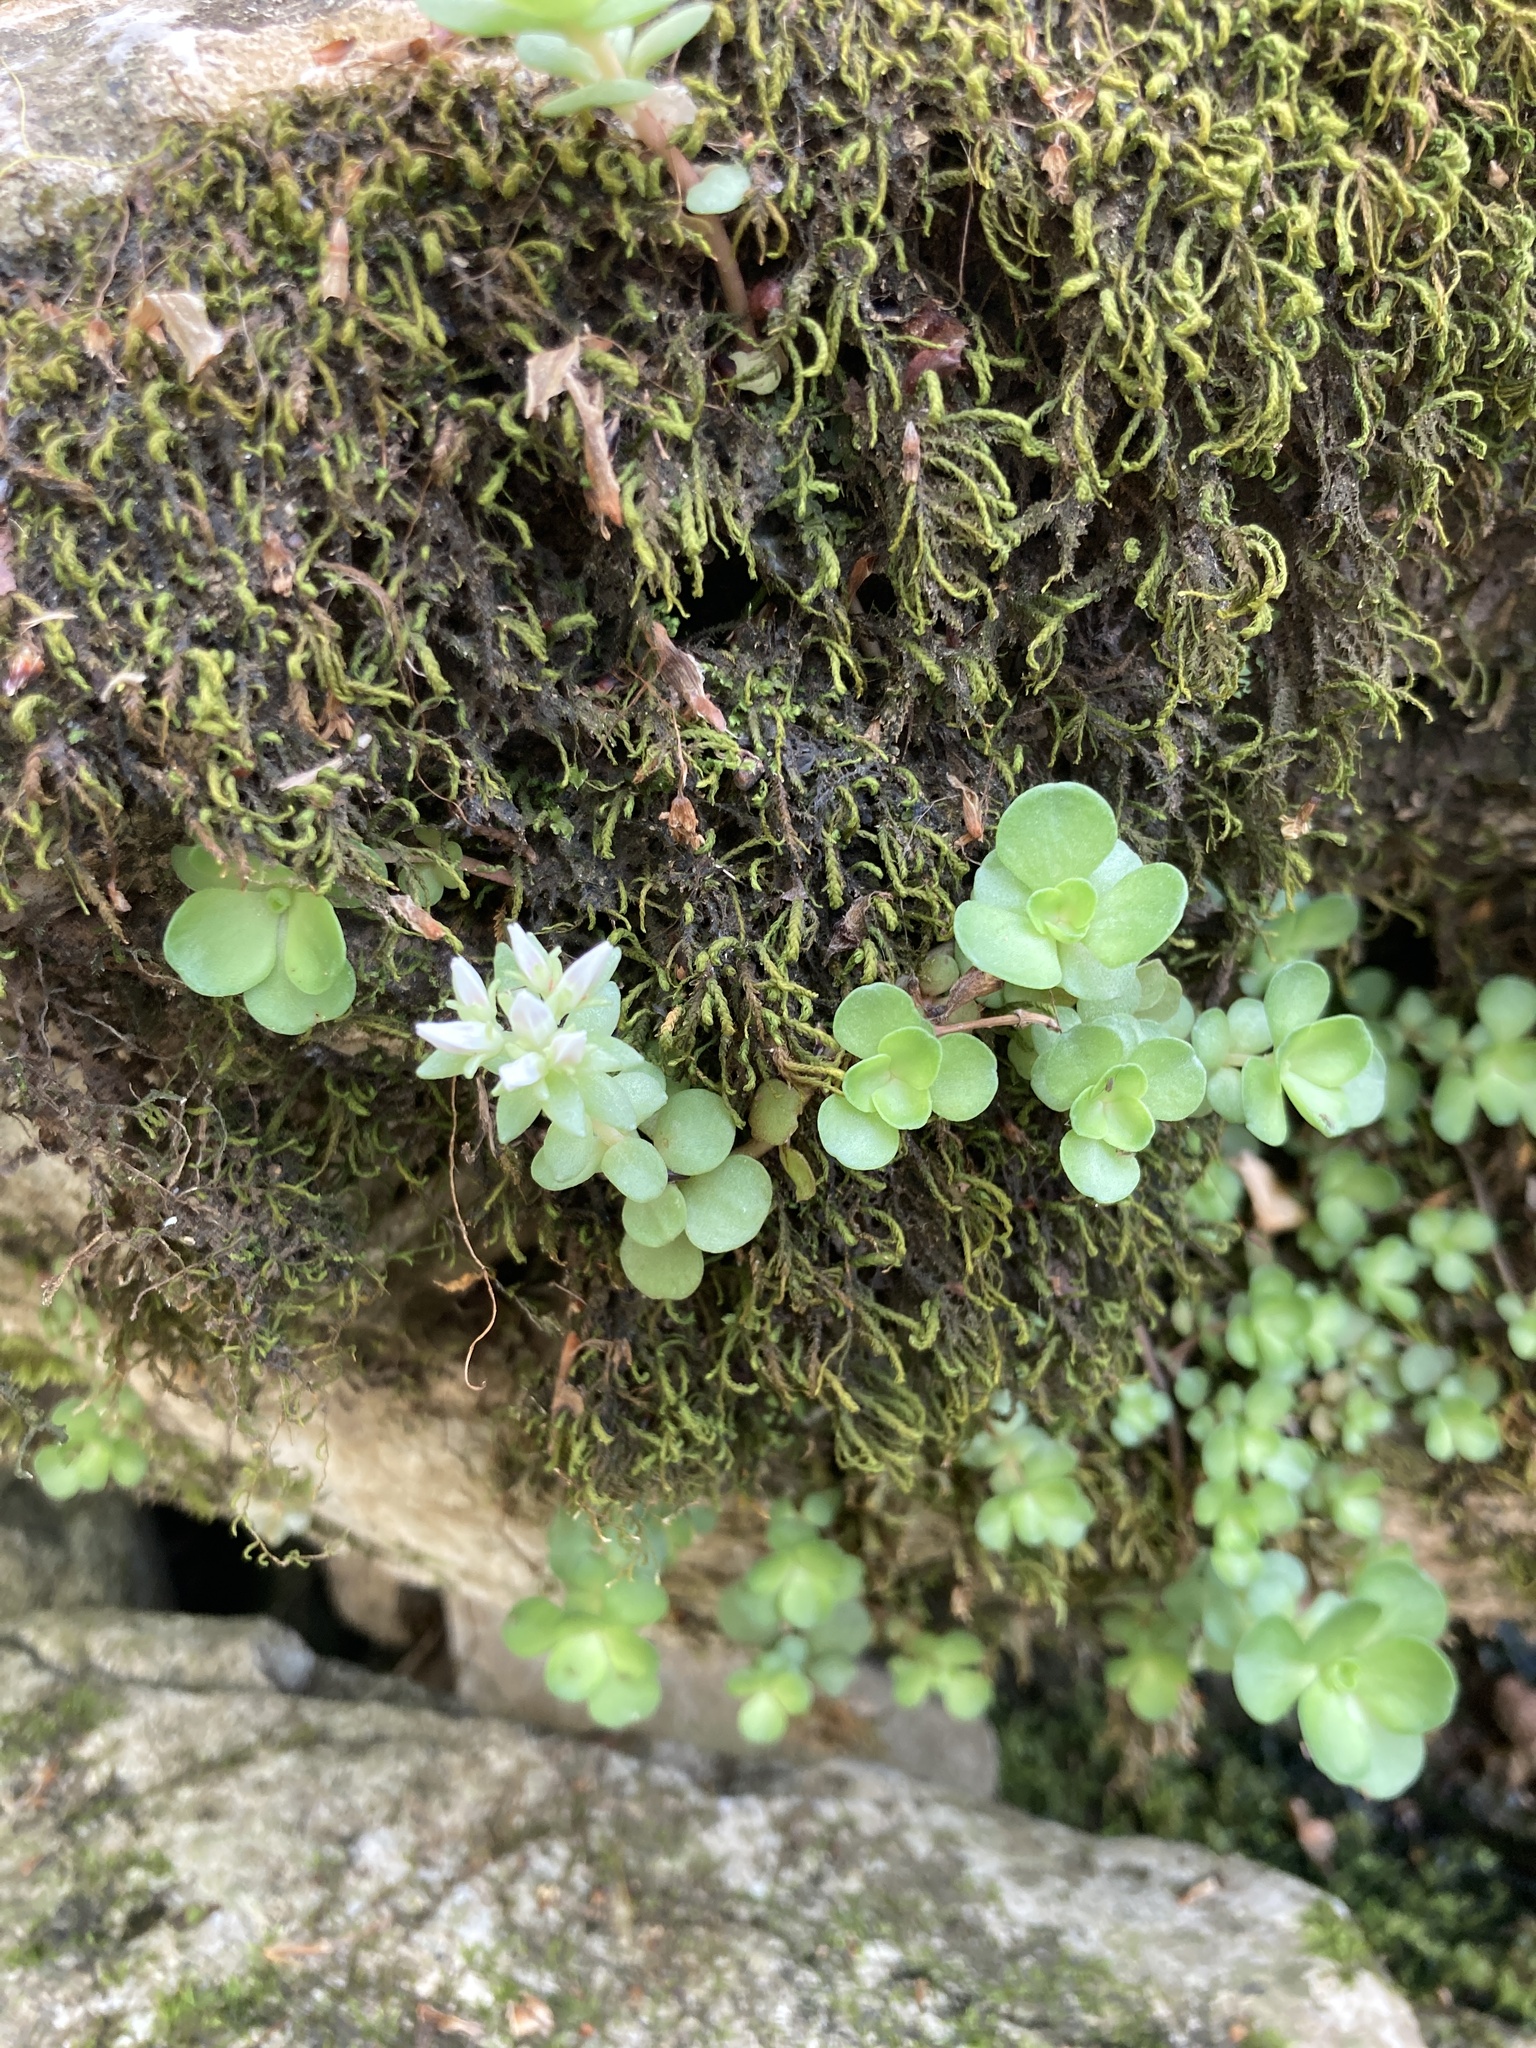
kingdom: Plantae
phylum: Tracheophyta
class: Magnoliopsida
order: Saxifragales
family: Crassulaceae
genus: Sedum
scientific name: Sedum ternatum
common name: Wild stonecrop
